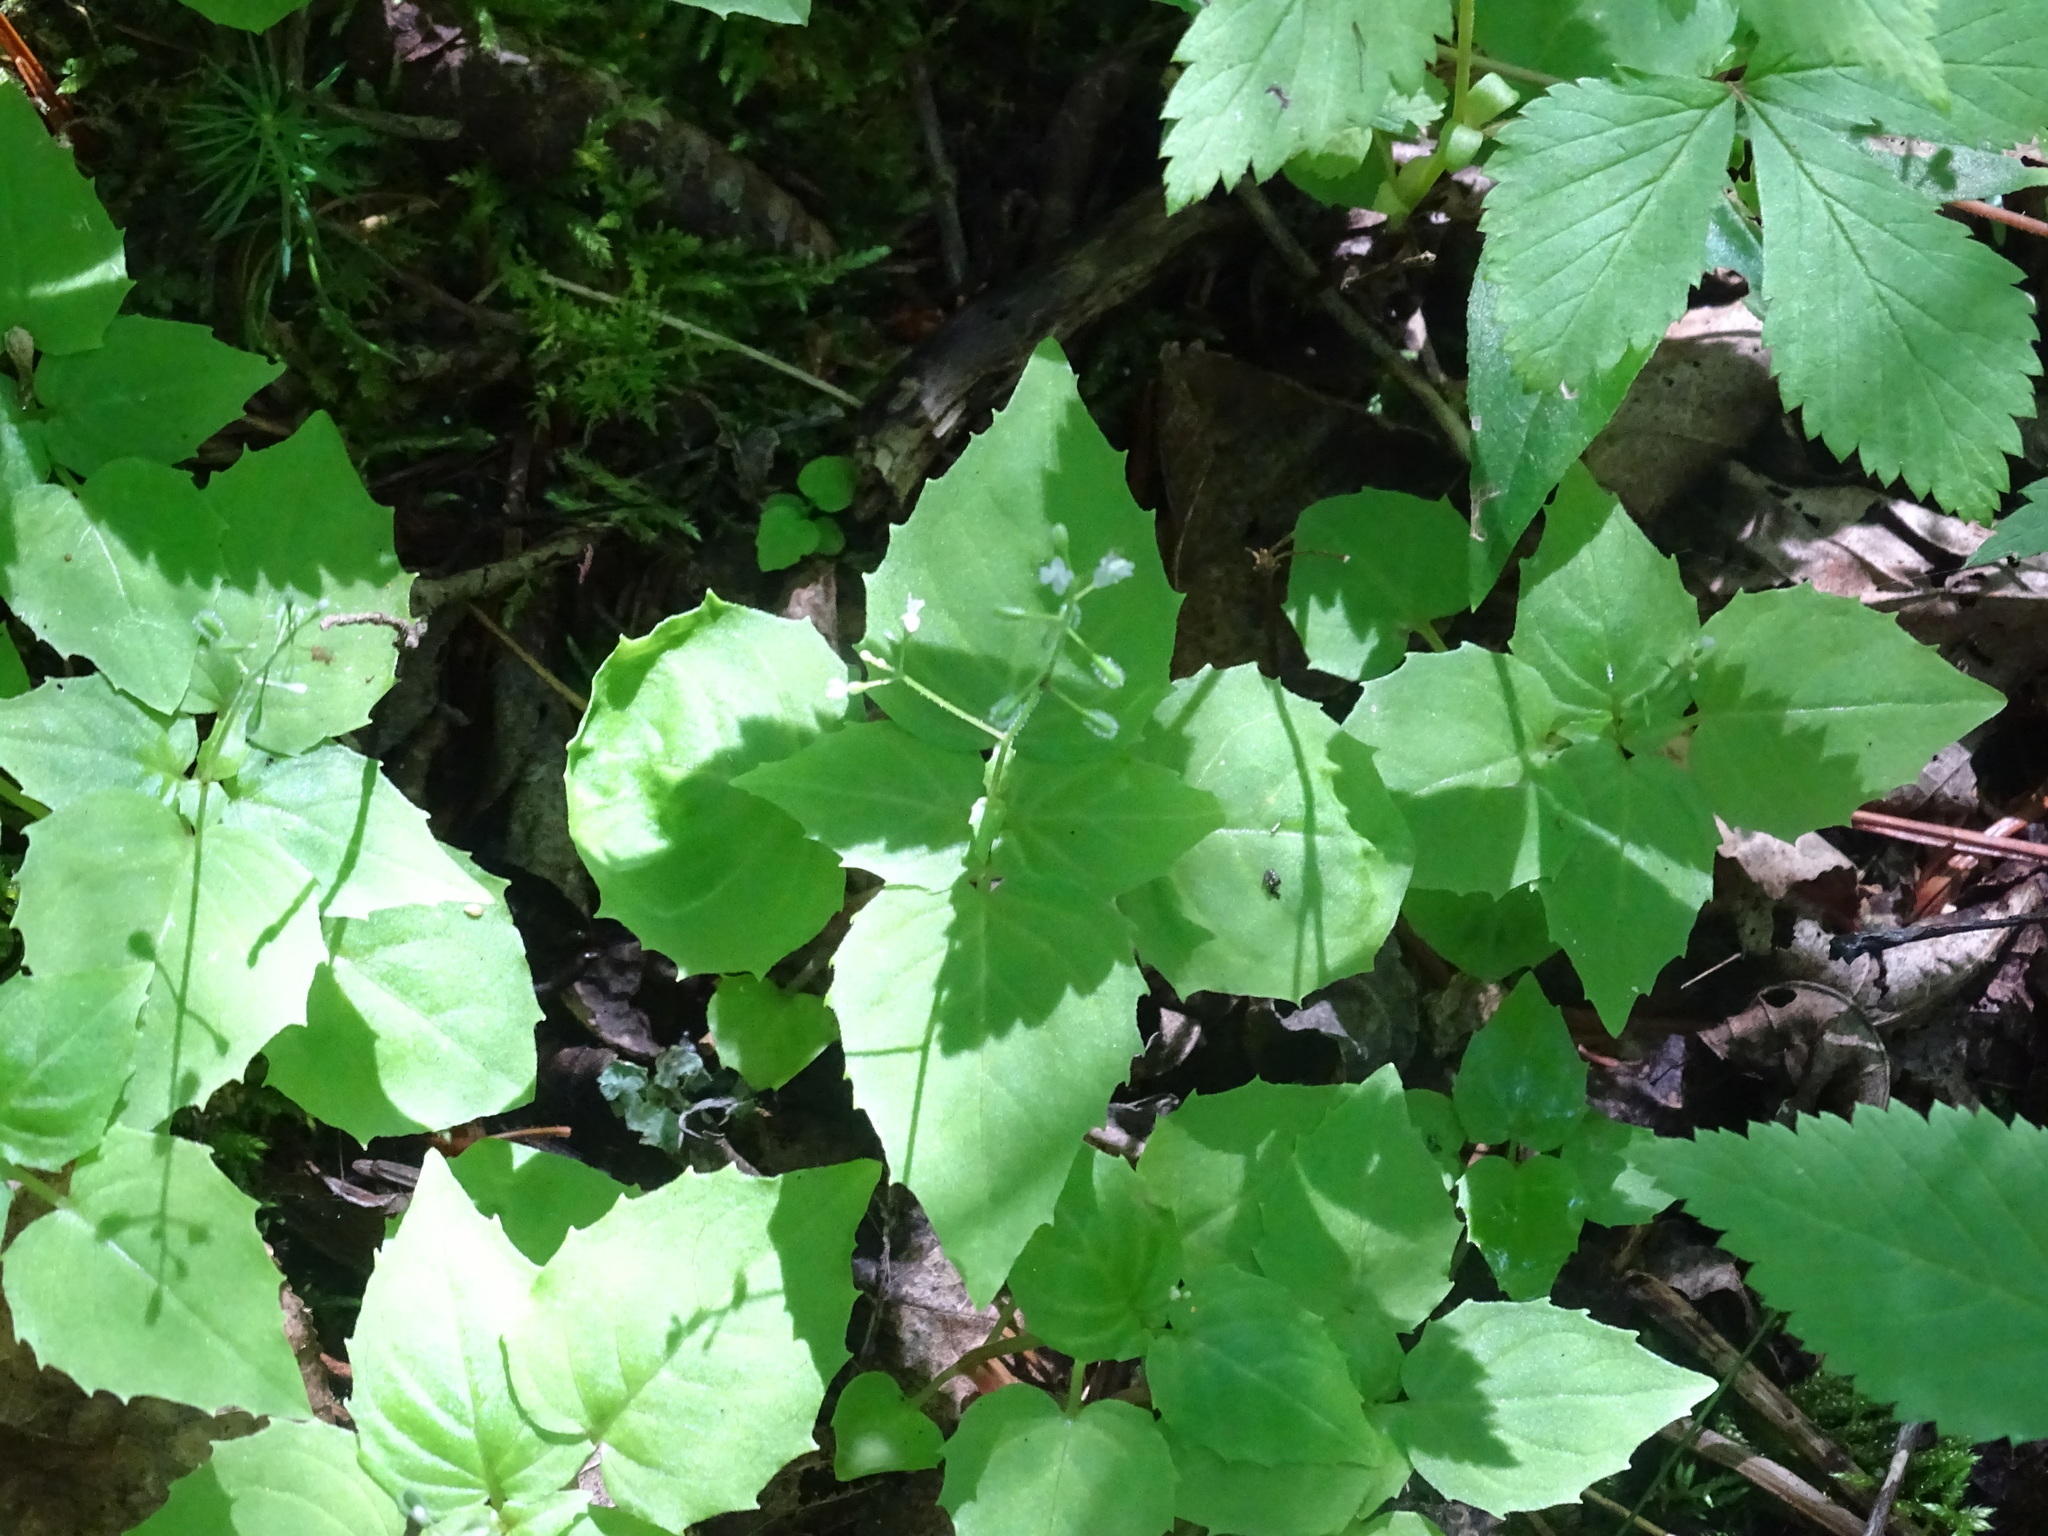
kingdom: Plantae
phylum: Tracheophyta
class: Magnoliopsida
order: Myrtales
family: Onagraceae
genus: Circaea
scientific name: Circaea alpina
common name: Alpine enchanter's-nightshade
